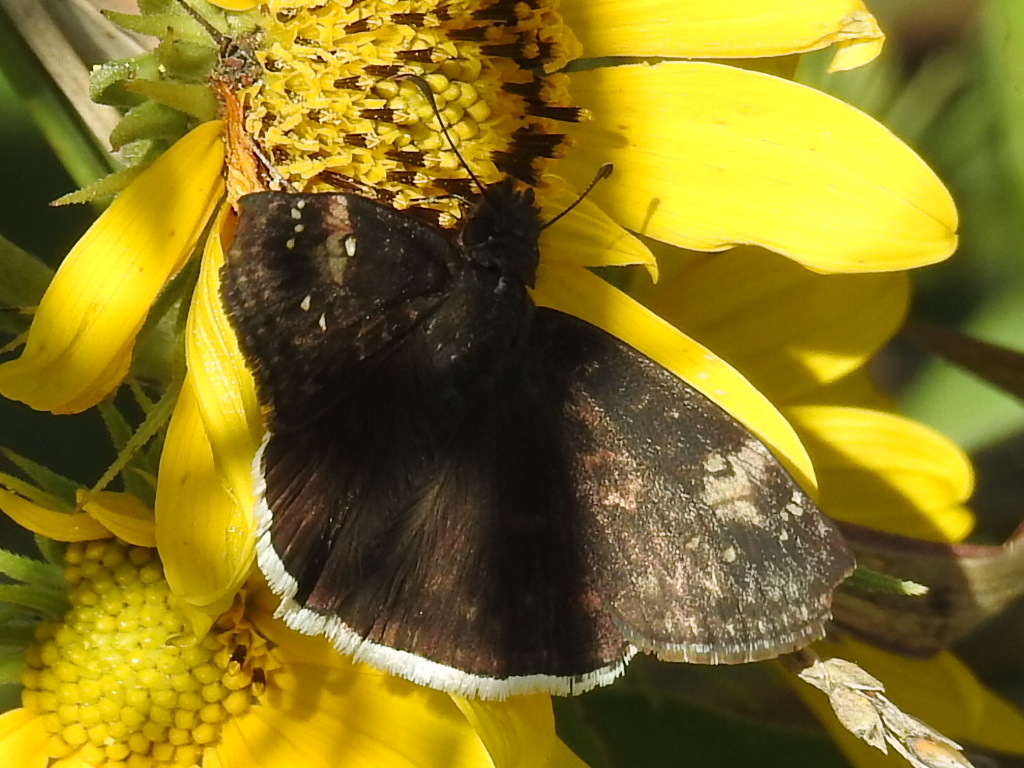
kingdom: Animalia
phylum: Arthropoda
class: Insecta
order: Lepidoptera
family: Hesperiidae
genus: Erynnis
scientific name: Erynnis funeralis
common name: Funereal duskywing
